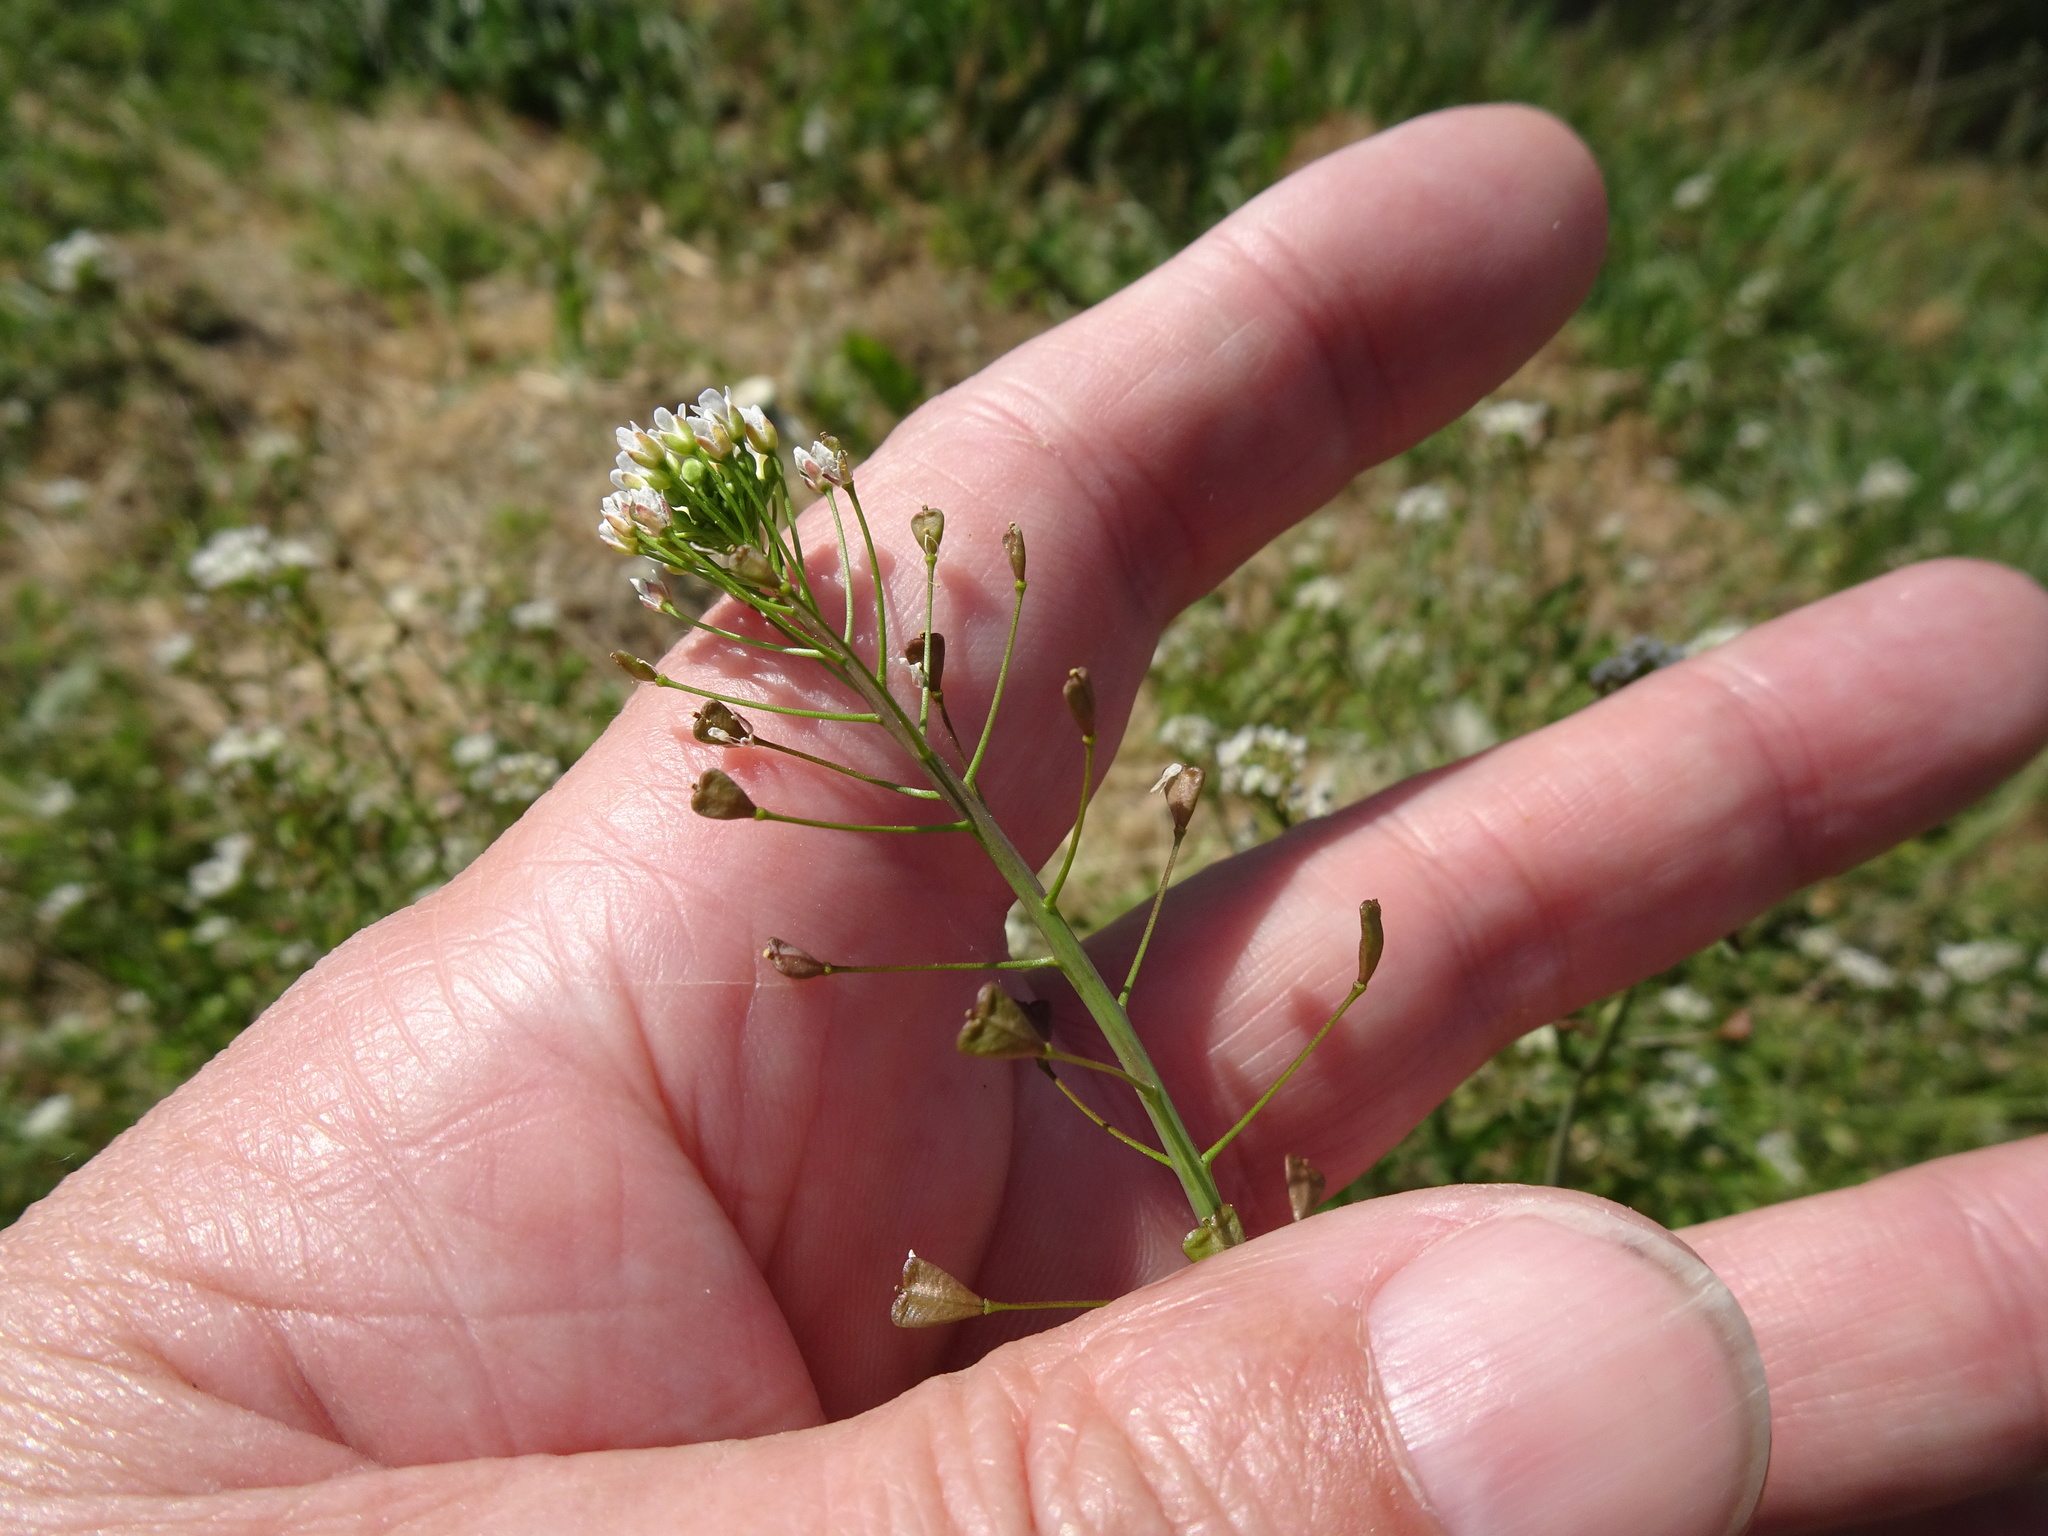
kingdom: Plantae
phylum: Tracheophyta
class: Magnoliopsida
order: Brassicales
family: Brassicaceae
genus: Capsella
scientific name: Capsella bursa-pastoris
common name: Shepherd's purse
